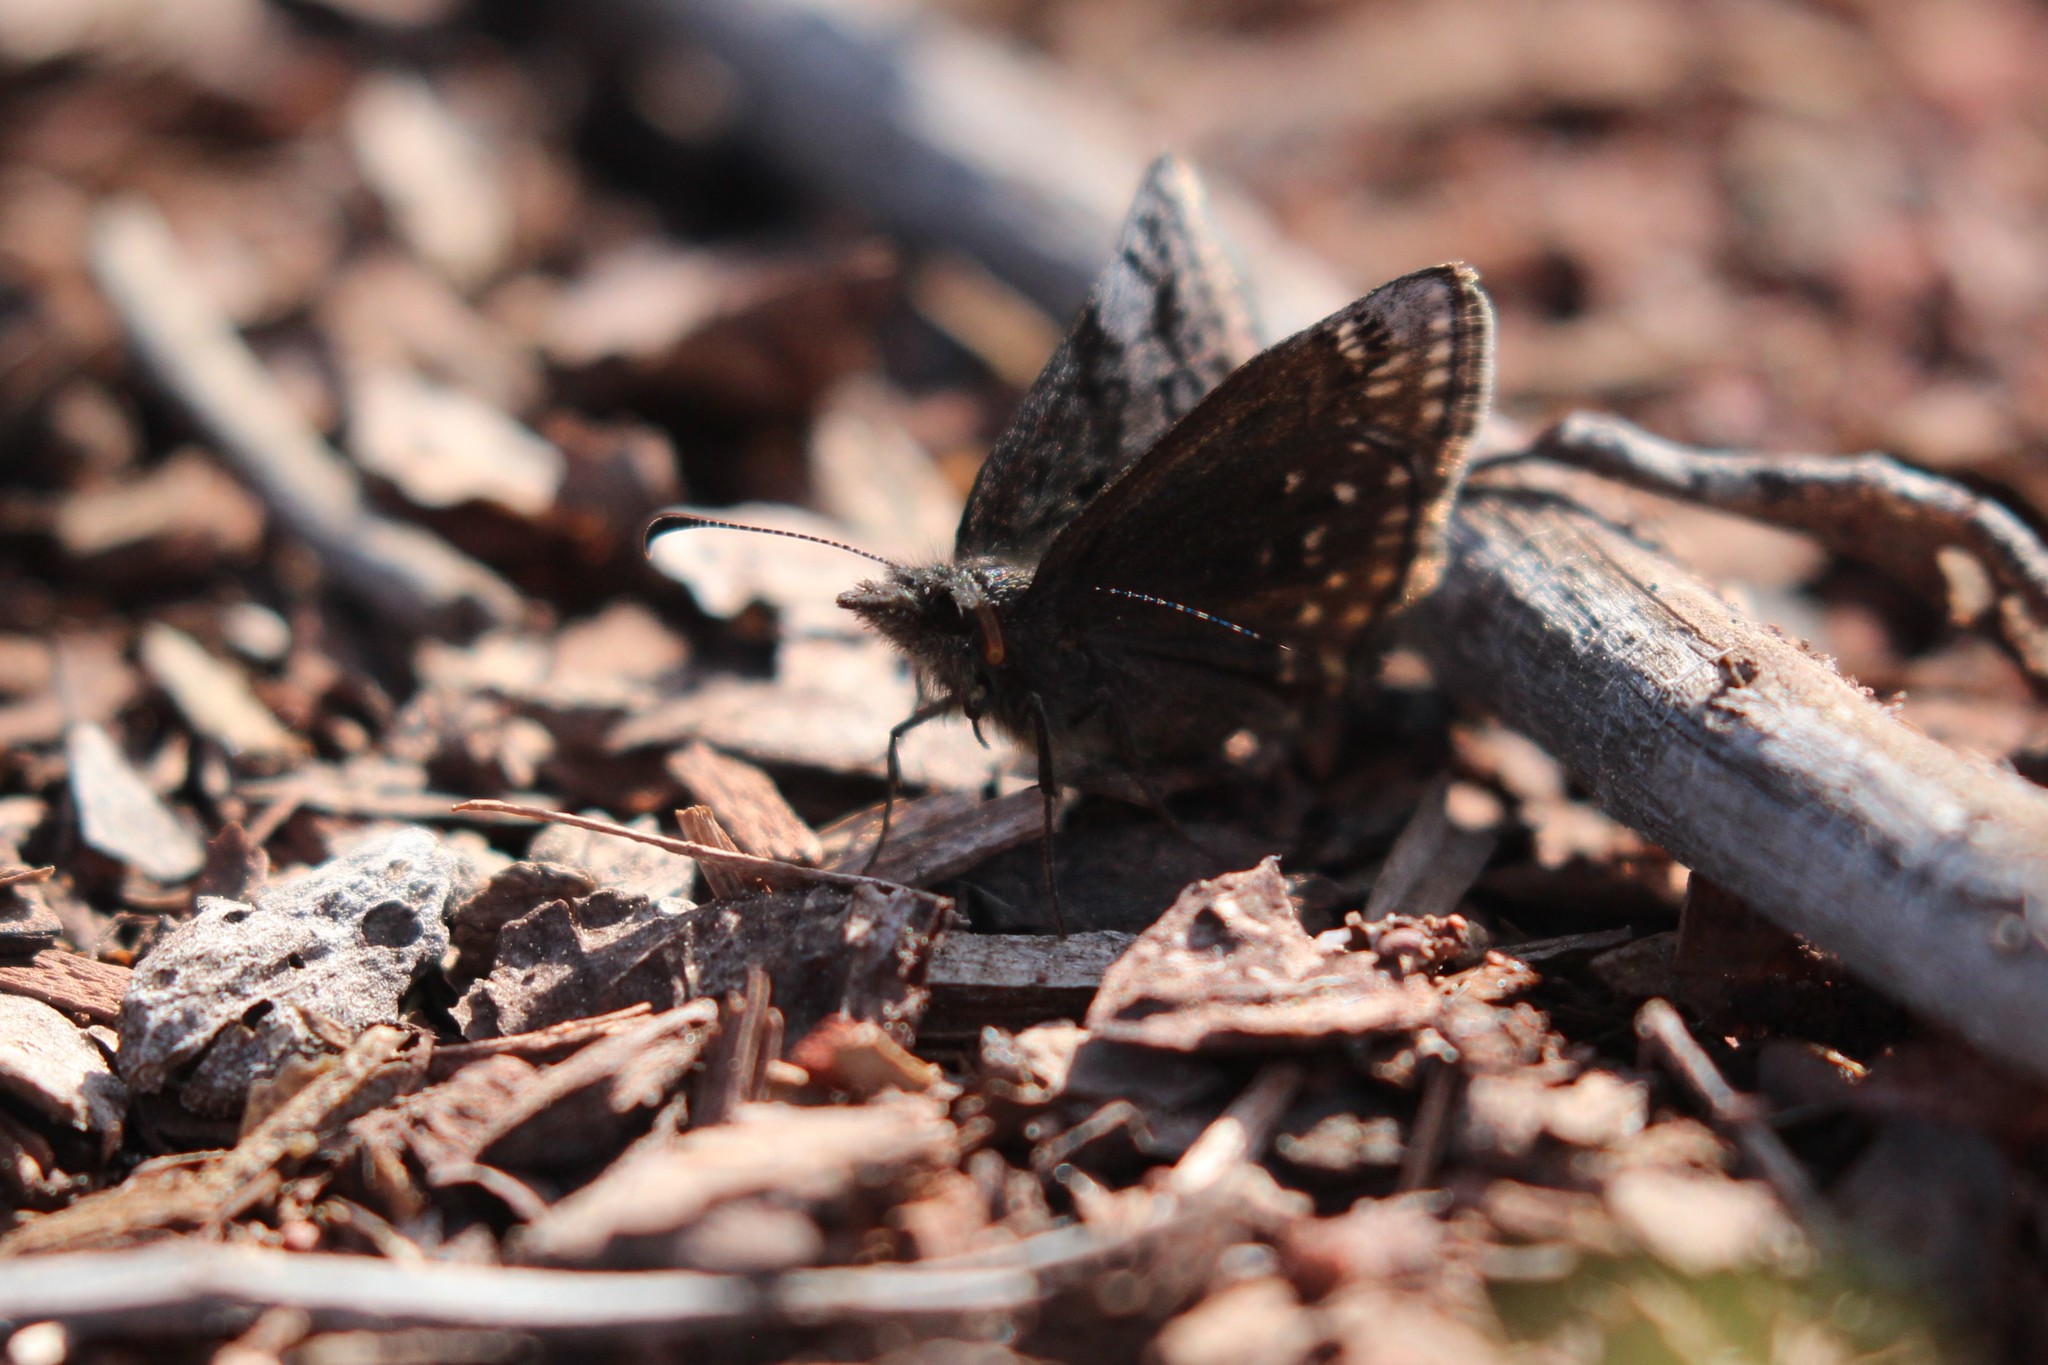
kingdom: Animalia
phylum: Arthropoda
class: Insecta
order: Lepidoptera
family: Hesperiidae
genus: Erynnis
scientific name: Erynnis icelus
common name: Dreamy duskywing
